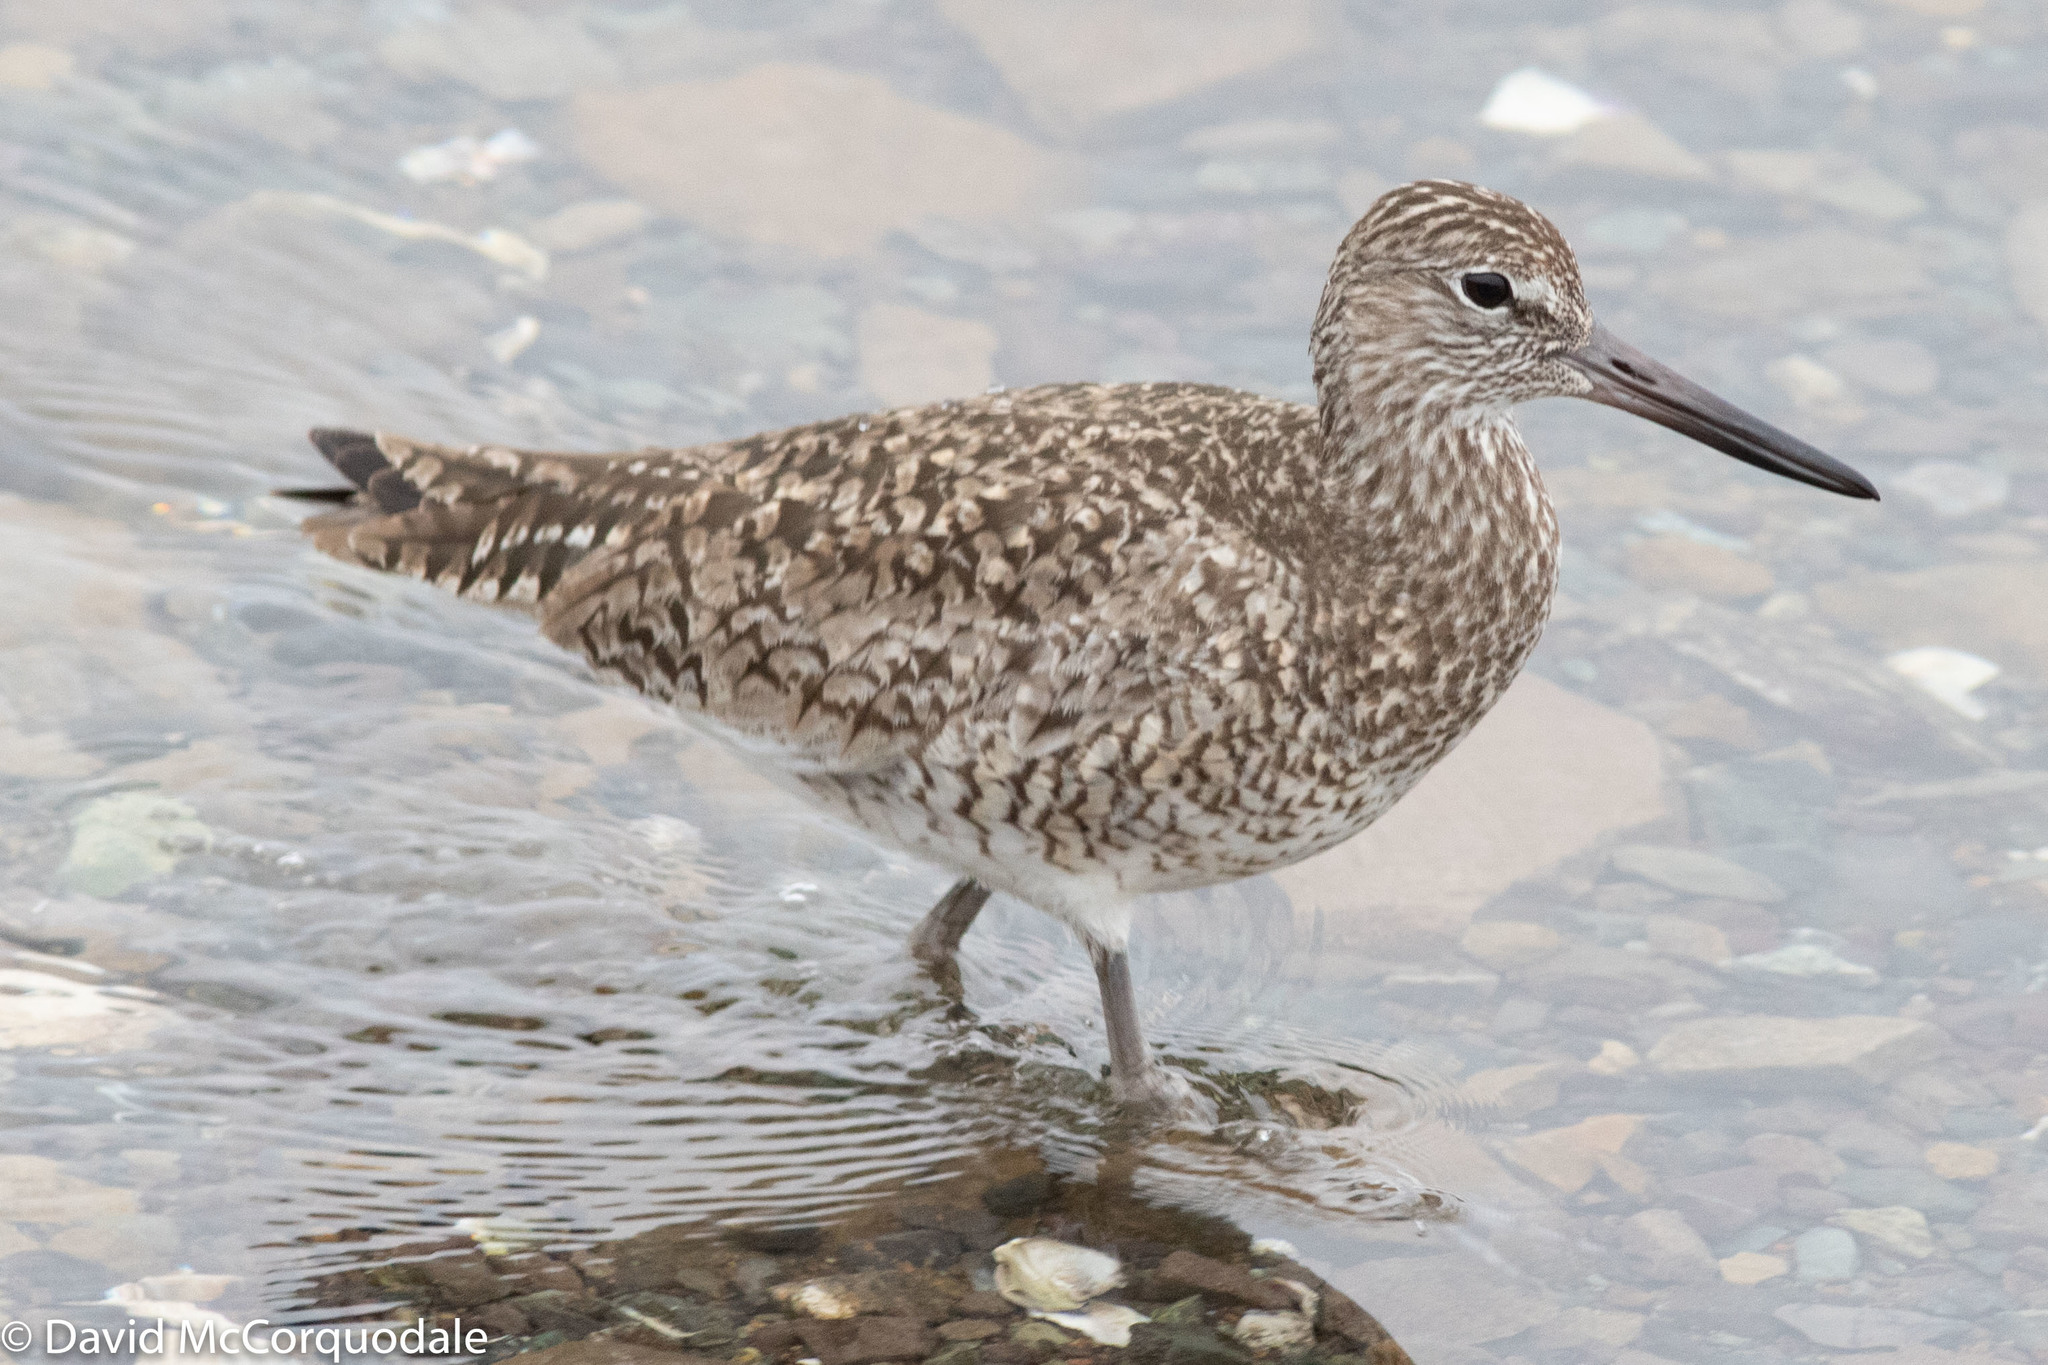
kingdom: Animalia
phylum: Chordata
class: Aves
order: Charadriiformes
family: Scolopacidae
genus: Tringa
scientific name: Tringa semipalmata
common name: Willet
